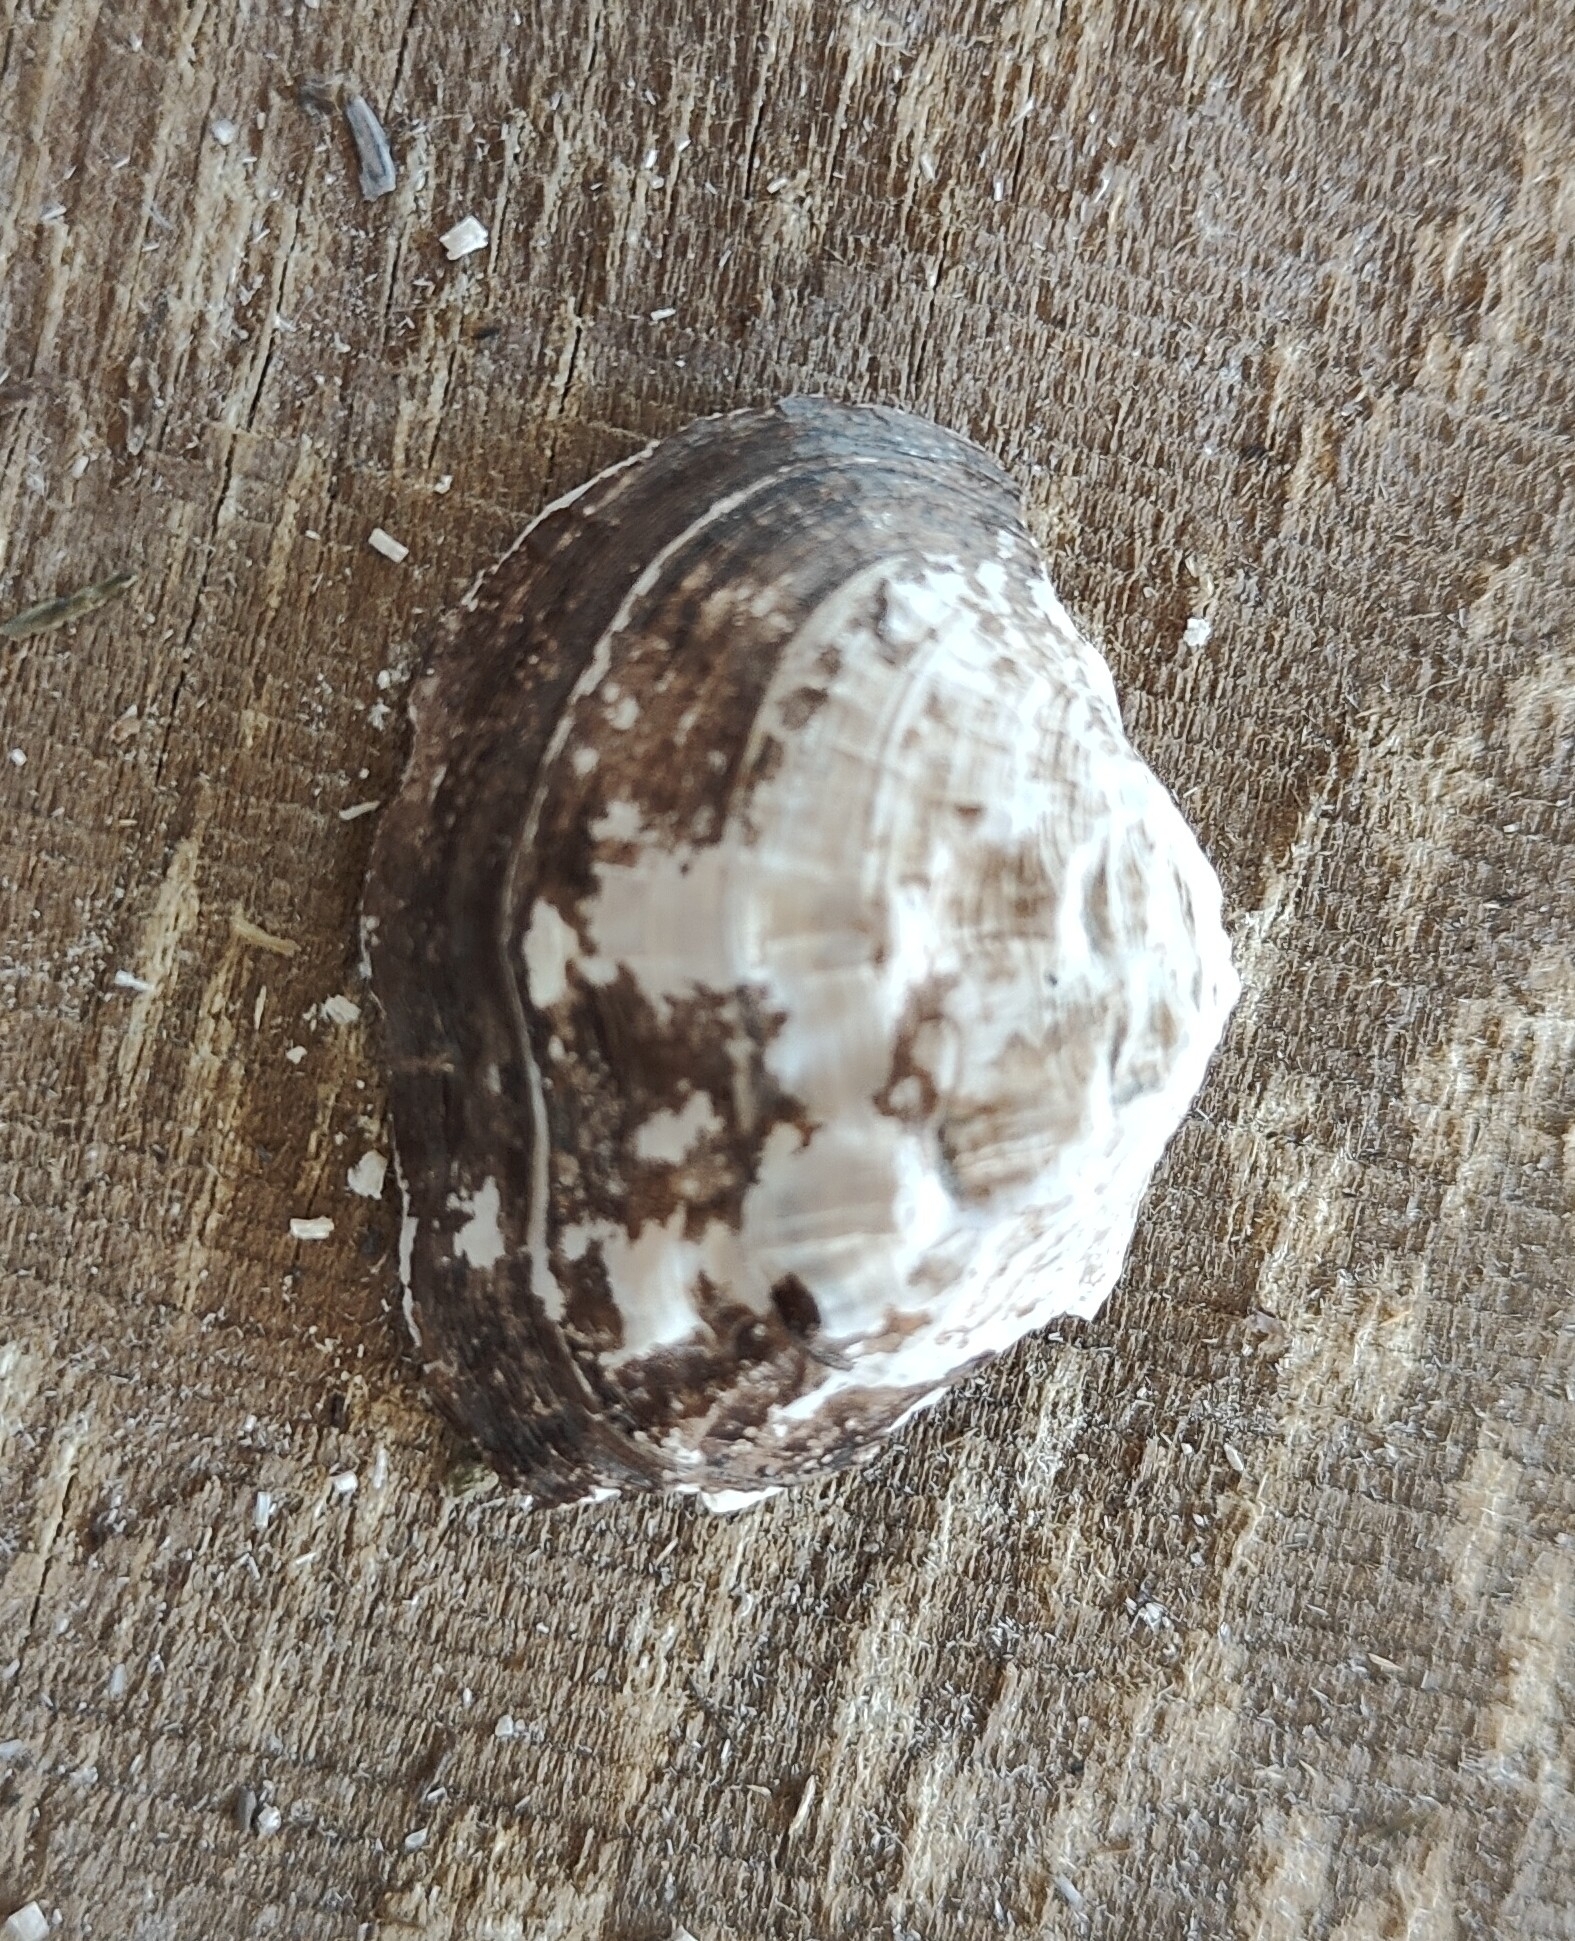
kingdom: Animalia
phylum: Mollusca
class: Bivalvia
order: Unionida
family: Unionidae
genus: Arcidens
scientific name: Arcidens confragosus
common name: Rock pocketbook
